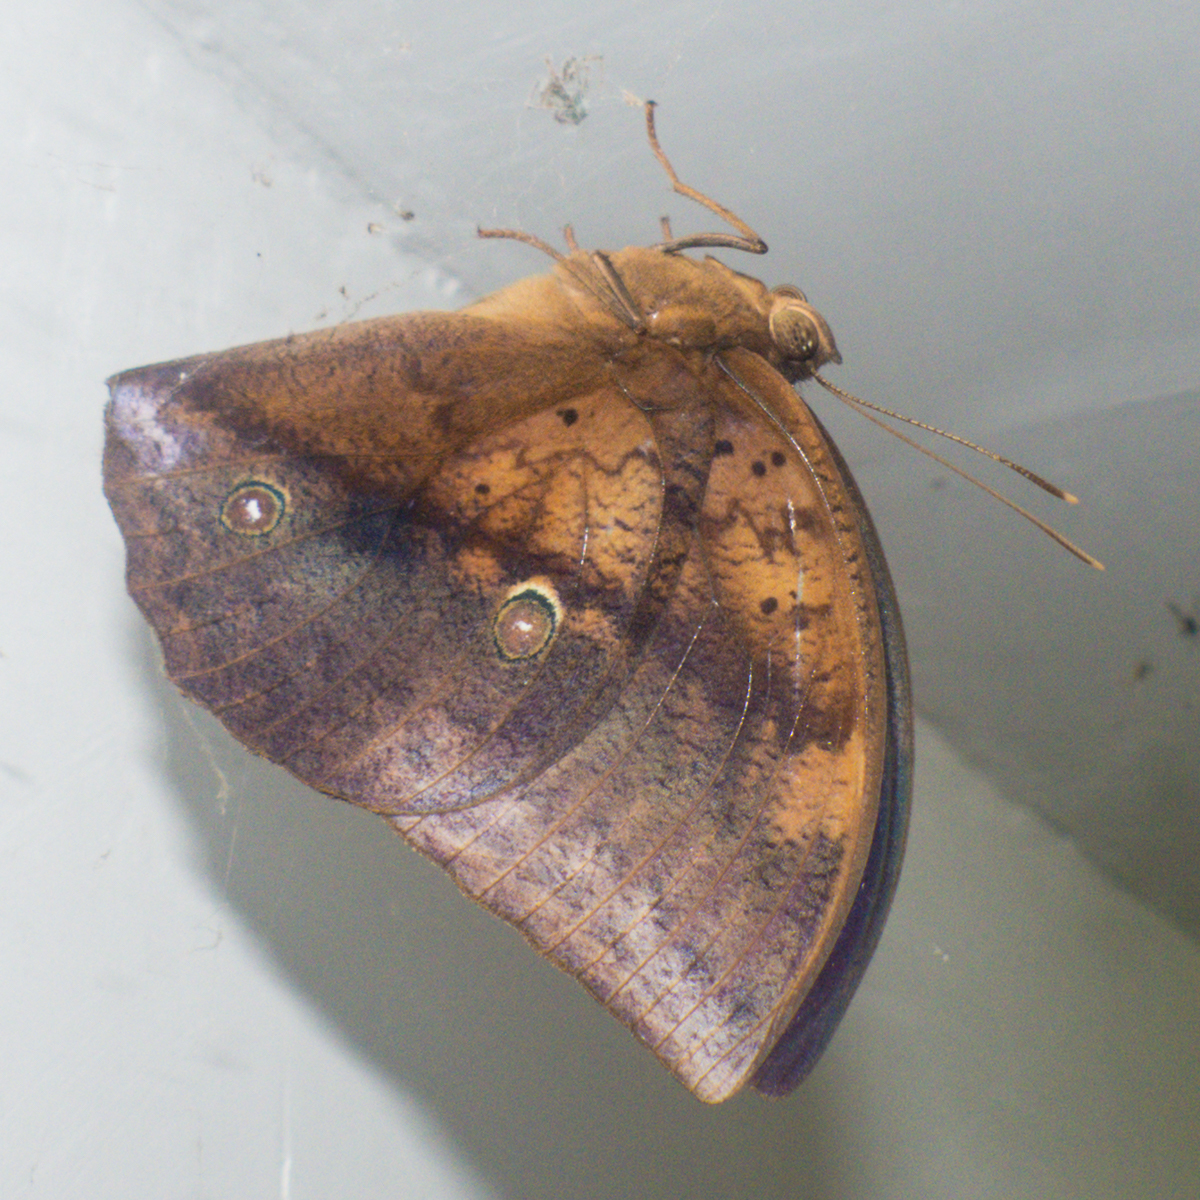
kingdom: Animalia
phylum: Arthropoda
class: Insecta
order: Lepidoptera
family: Nymphalidae
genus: Discophora
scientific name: Discophora timora
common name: Great duffer
